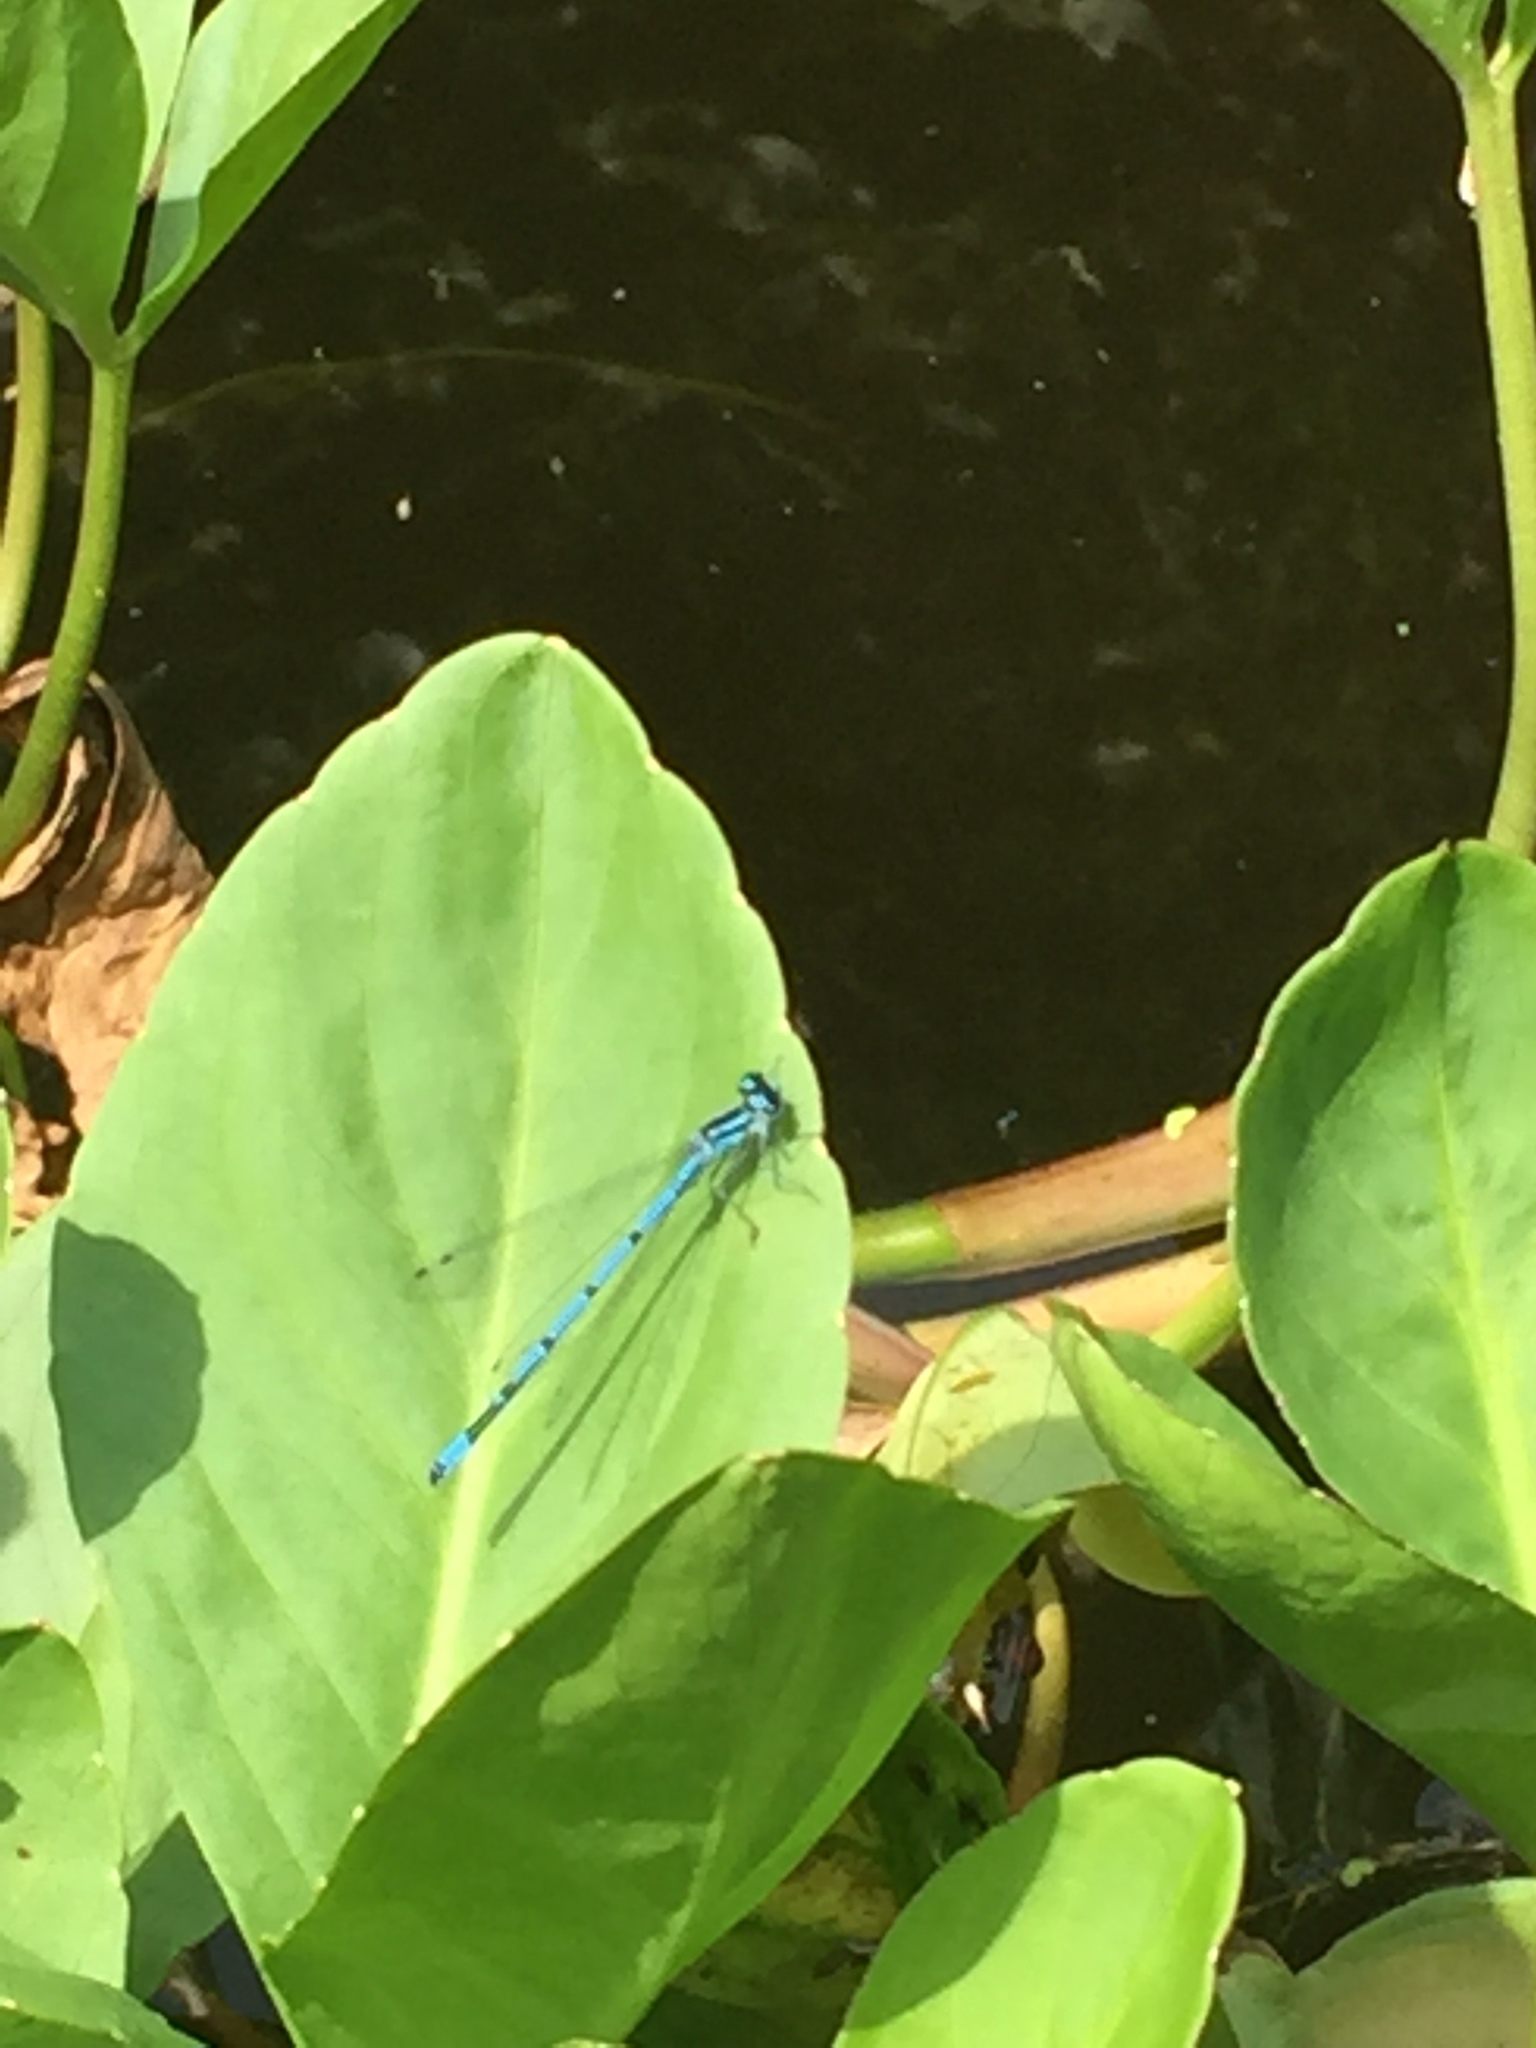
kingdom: Animalia
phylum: Arthropoda
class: Insecta
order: Odonata
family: Coenagrionidae
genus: Coenagrion
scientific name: Coenagrion puella
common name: Azure damselfly
